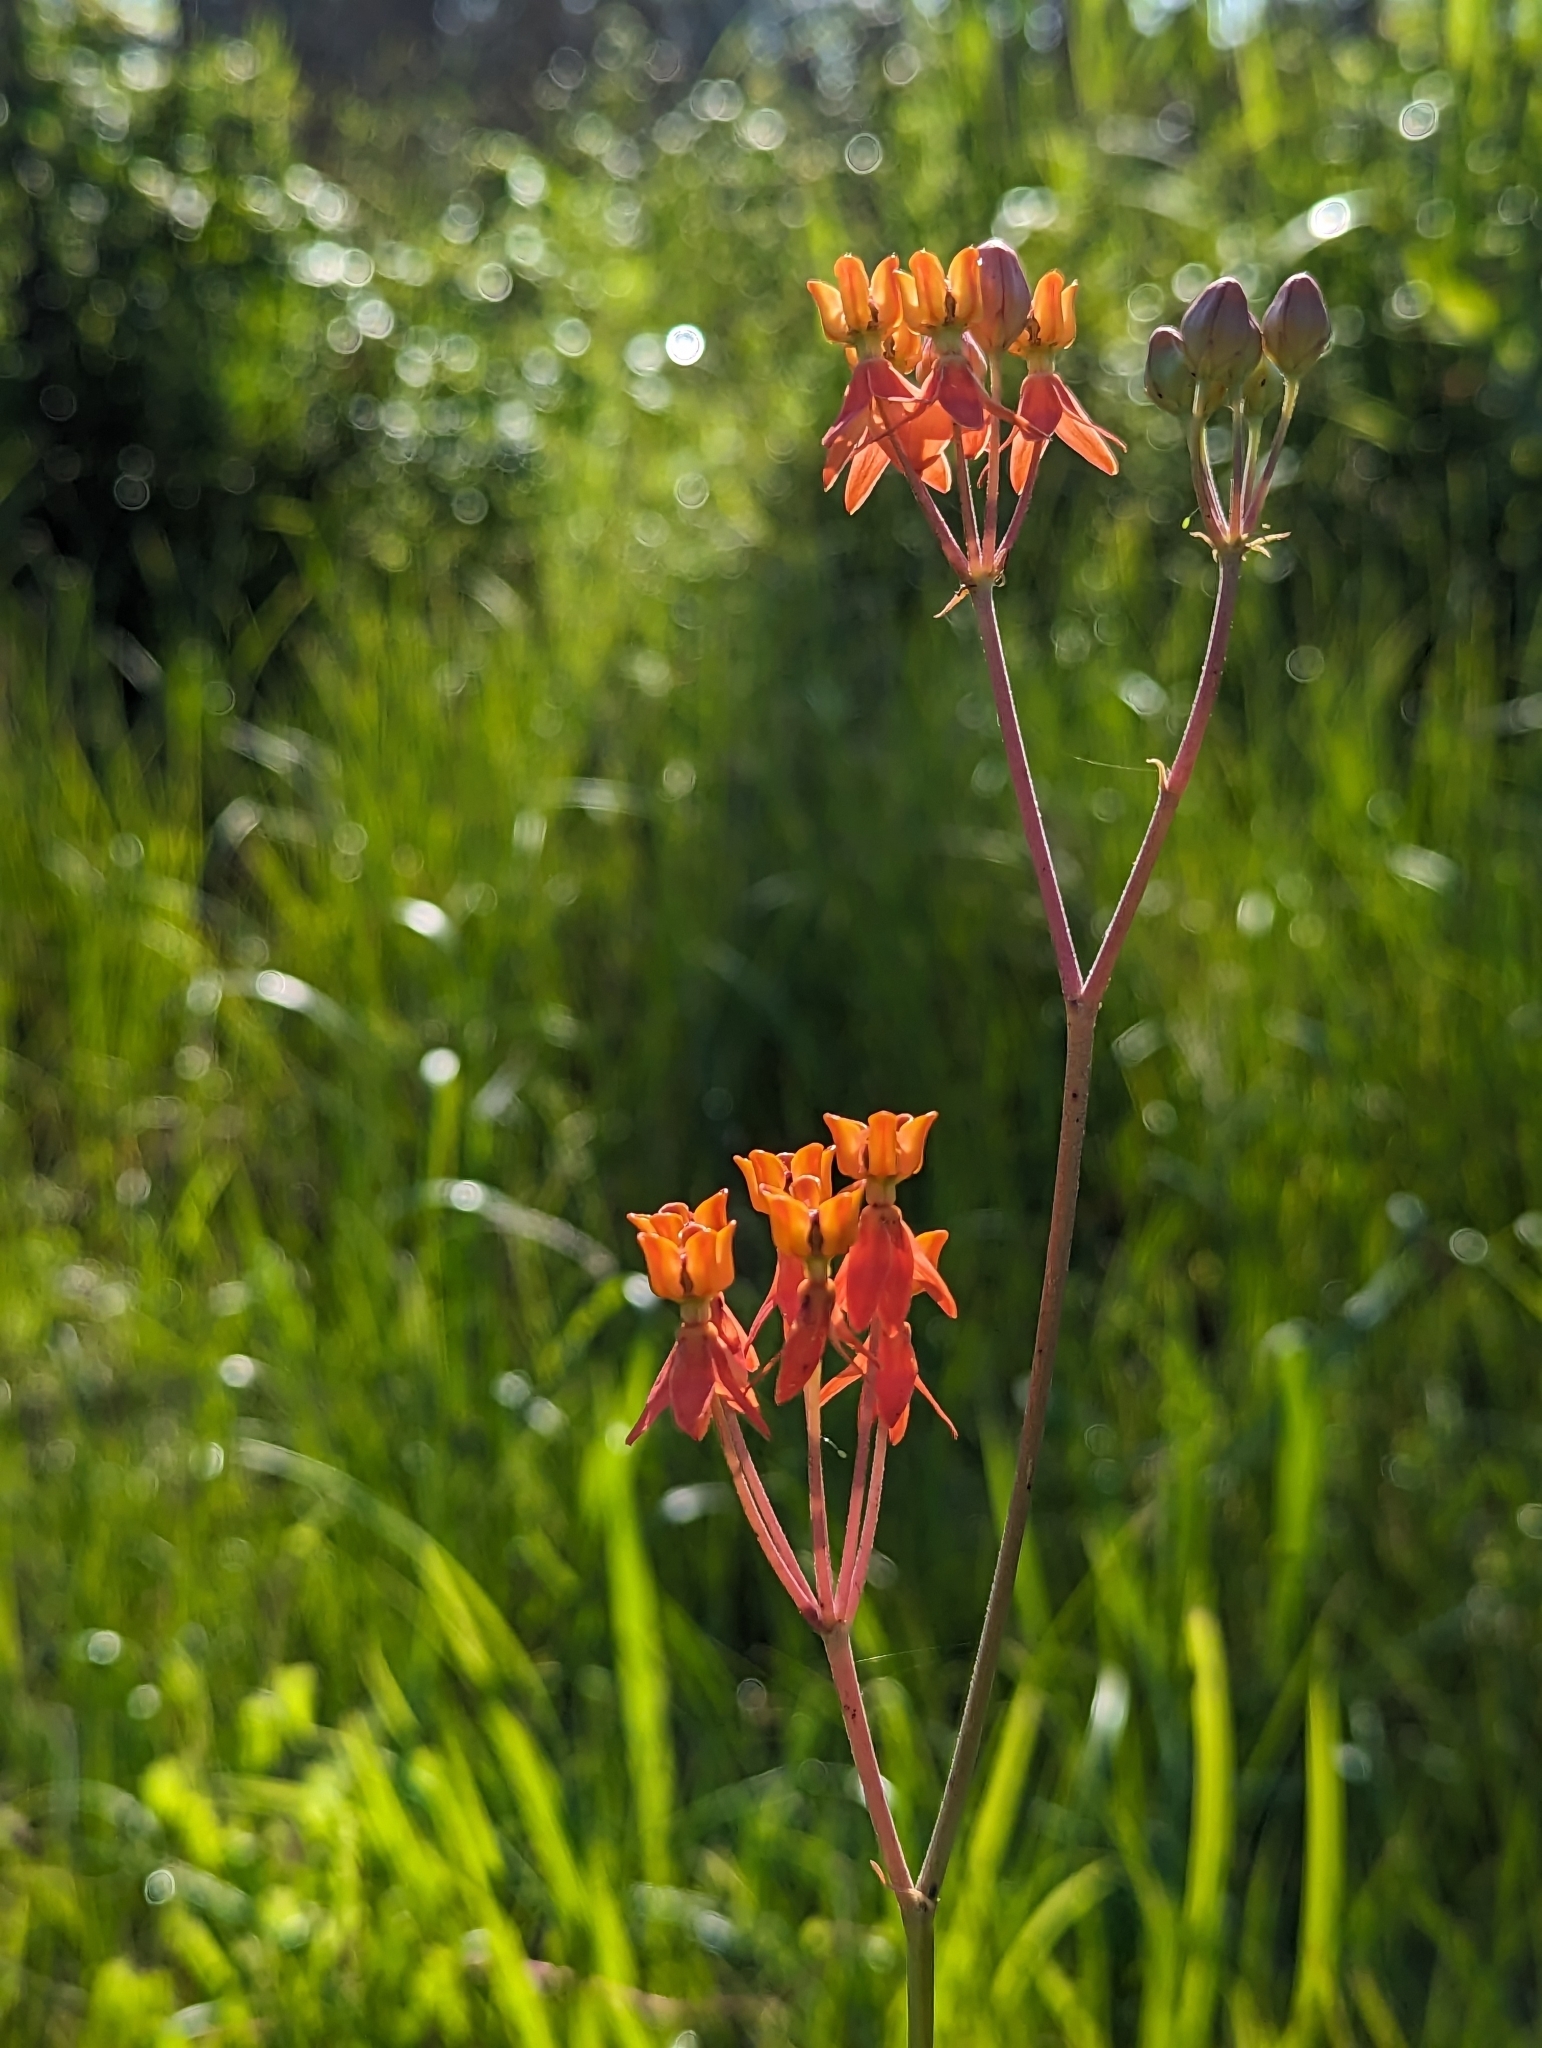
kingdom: Plantae
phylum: Tracheophyta
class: Magnoliopsida
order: Gentianales
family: Apocynaceae
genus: Asclepias
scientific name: Asclepias lanceolata
